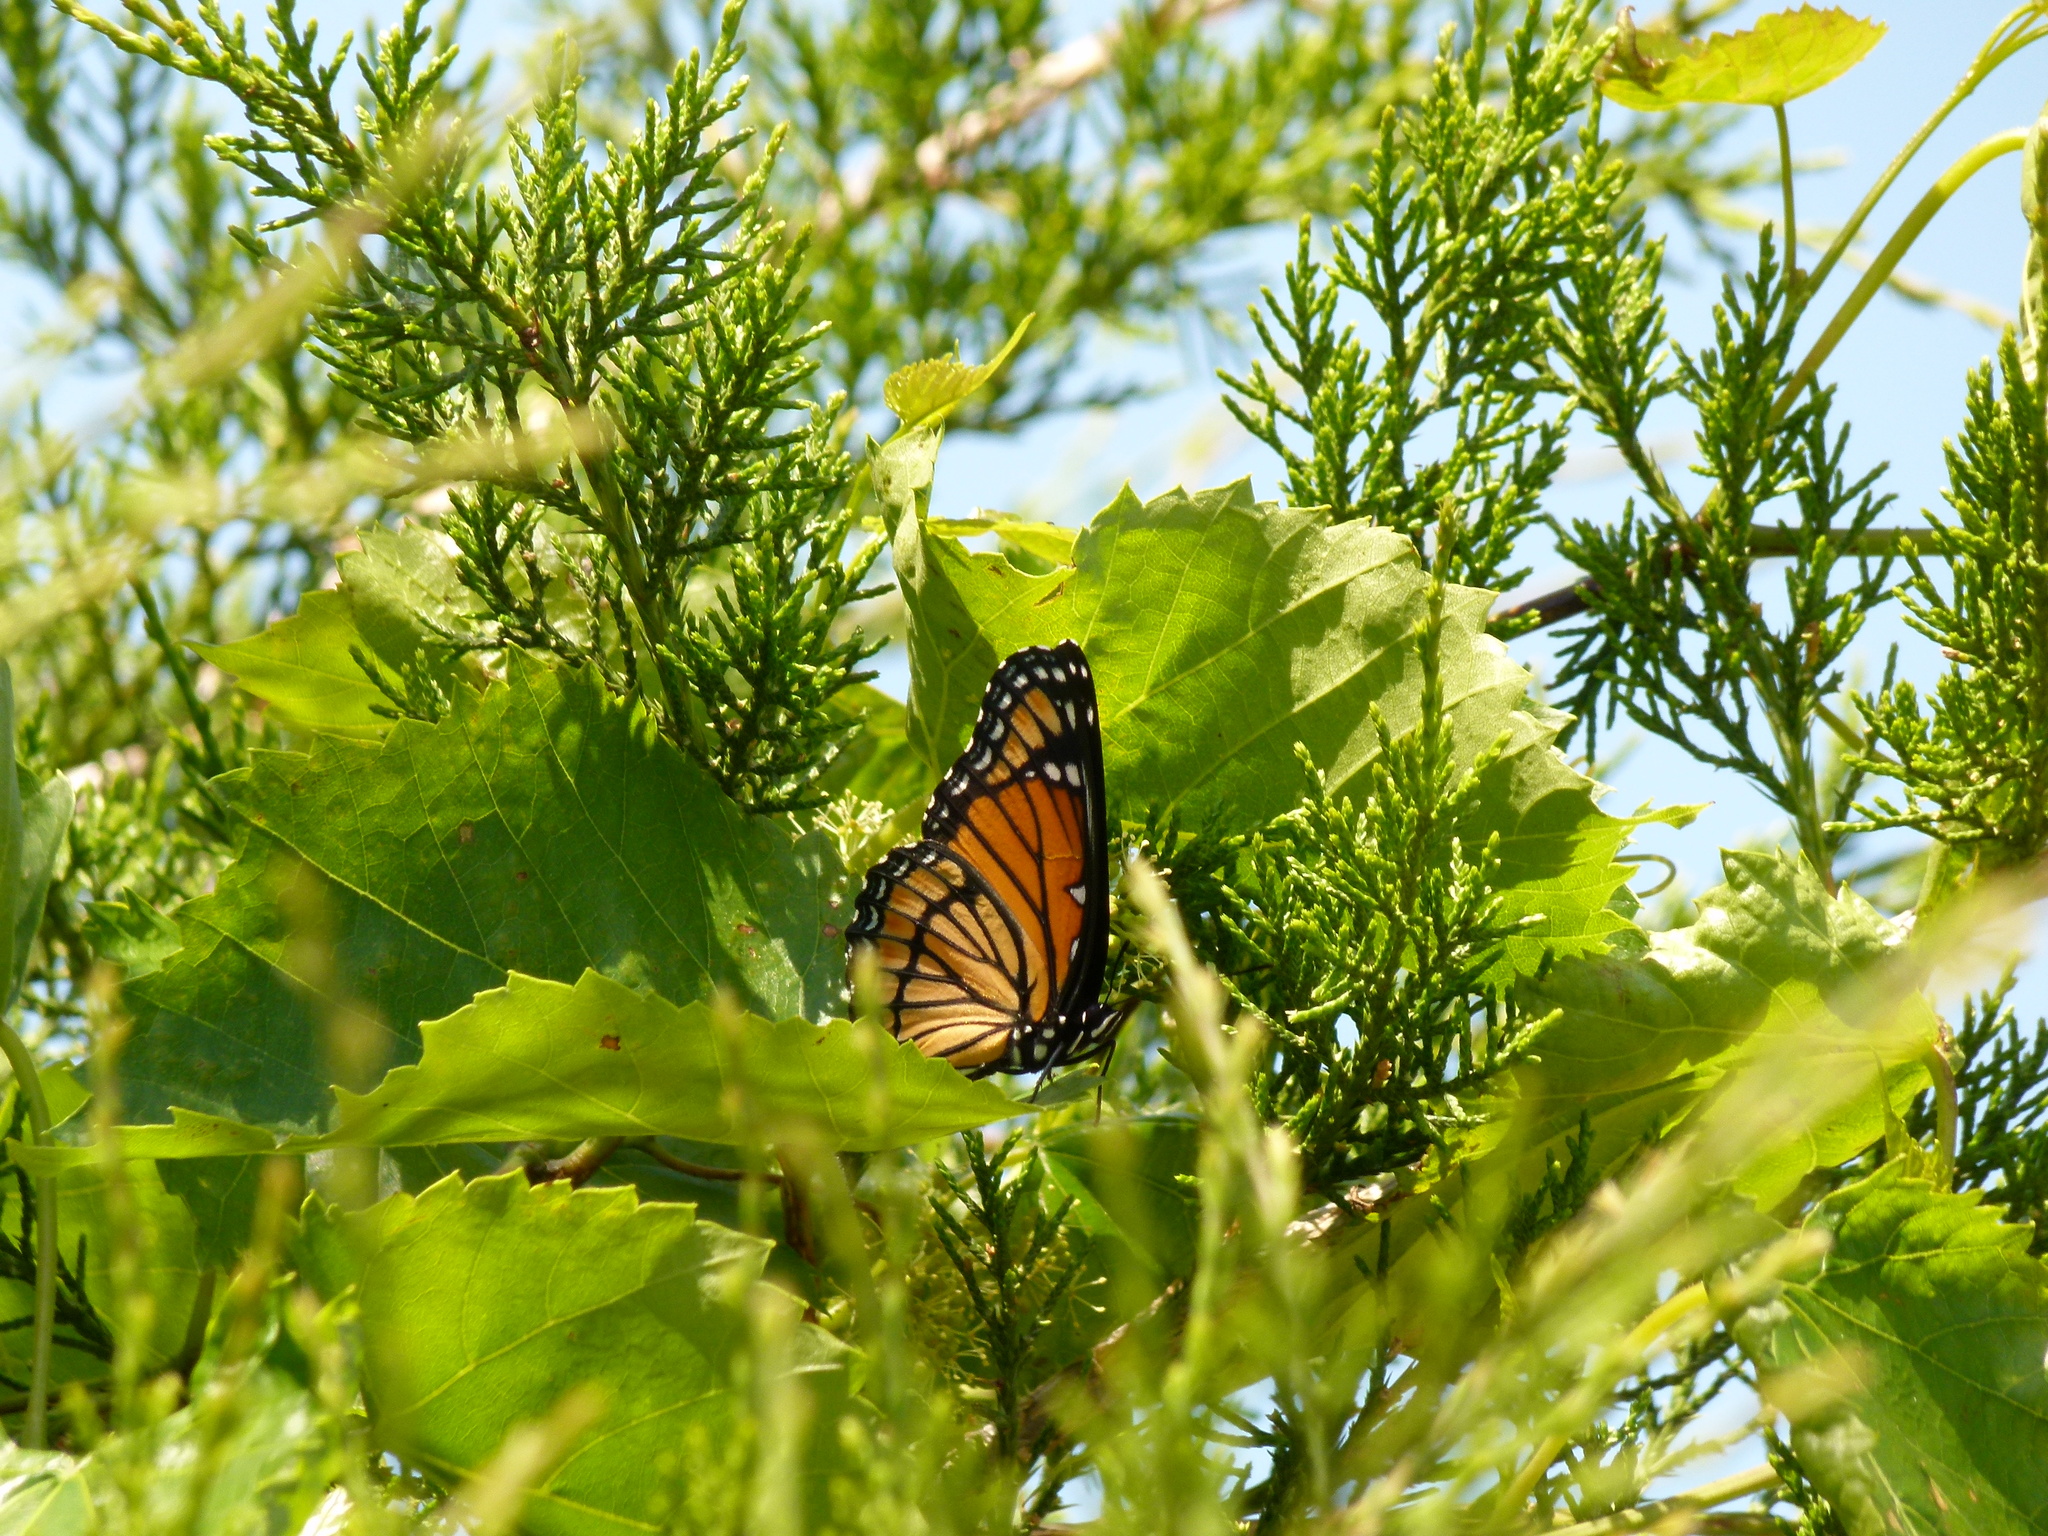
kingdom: Animalia
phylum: Arthropoda
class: Insecta
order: Lepidoptera
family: Nymphalidae
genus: Limenitis
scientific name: Limenitis archippus
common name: Viceroy
